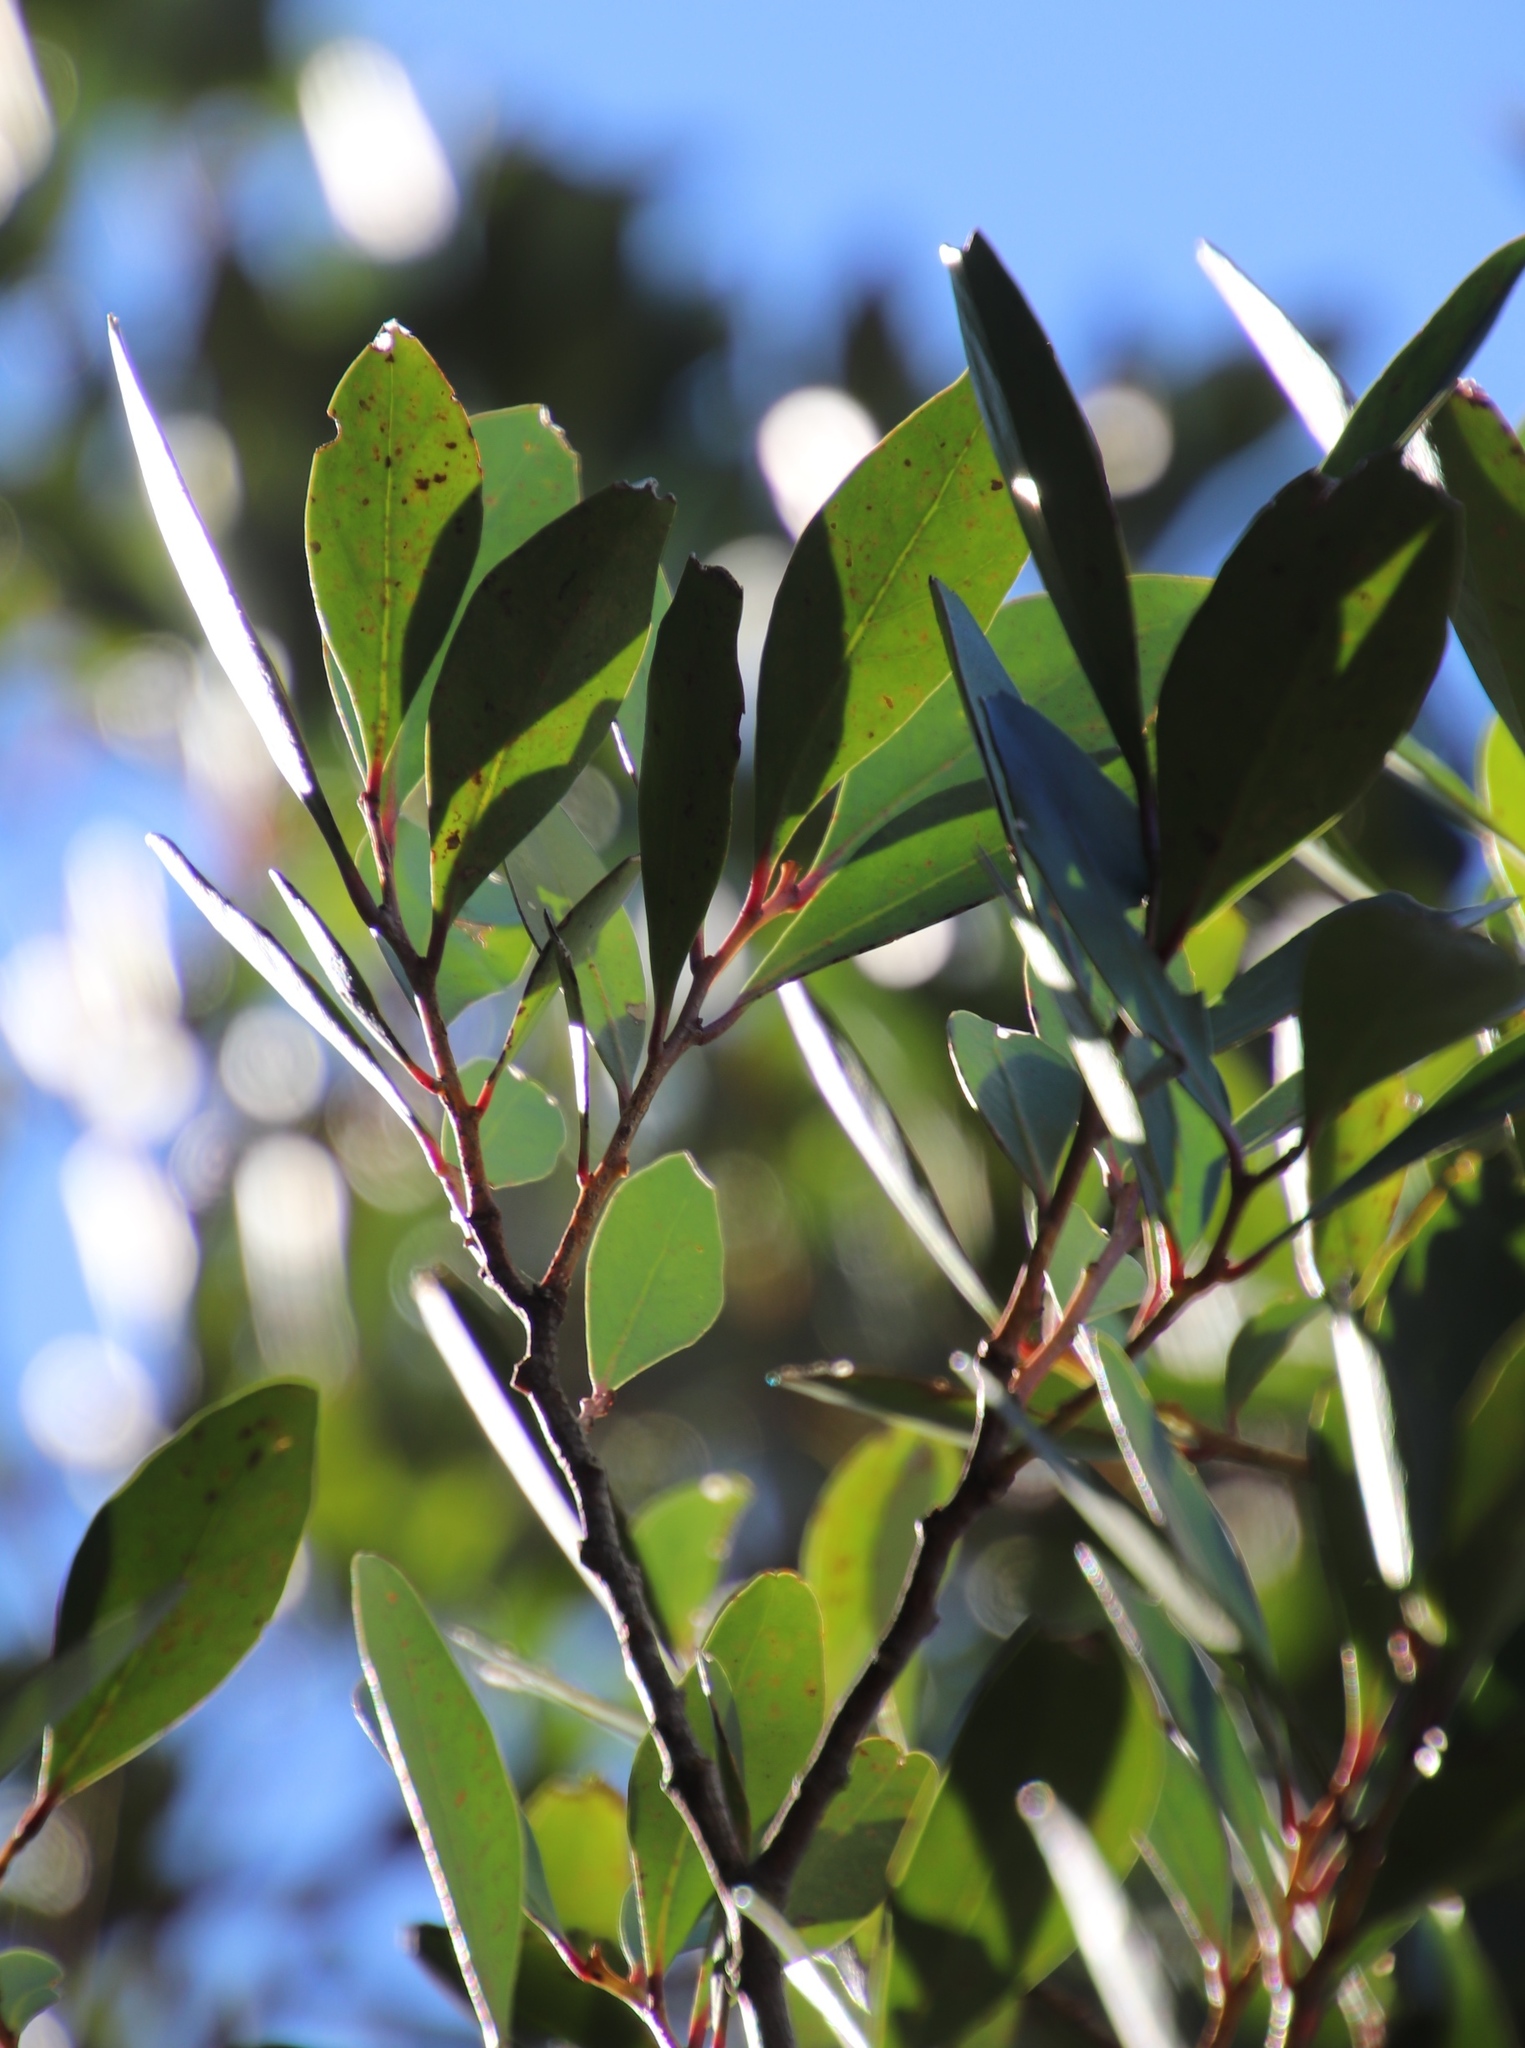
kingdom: Plantae
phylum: Tracheophyta
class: Magnoliopsida
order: Celastrales
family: Celastraceae
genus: Gymnosporia
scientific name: Gymnosporia laurina
